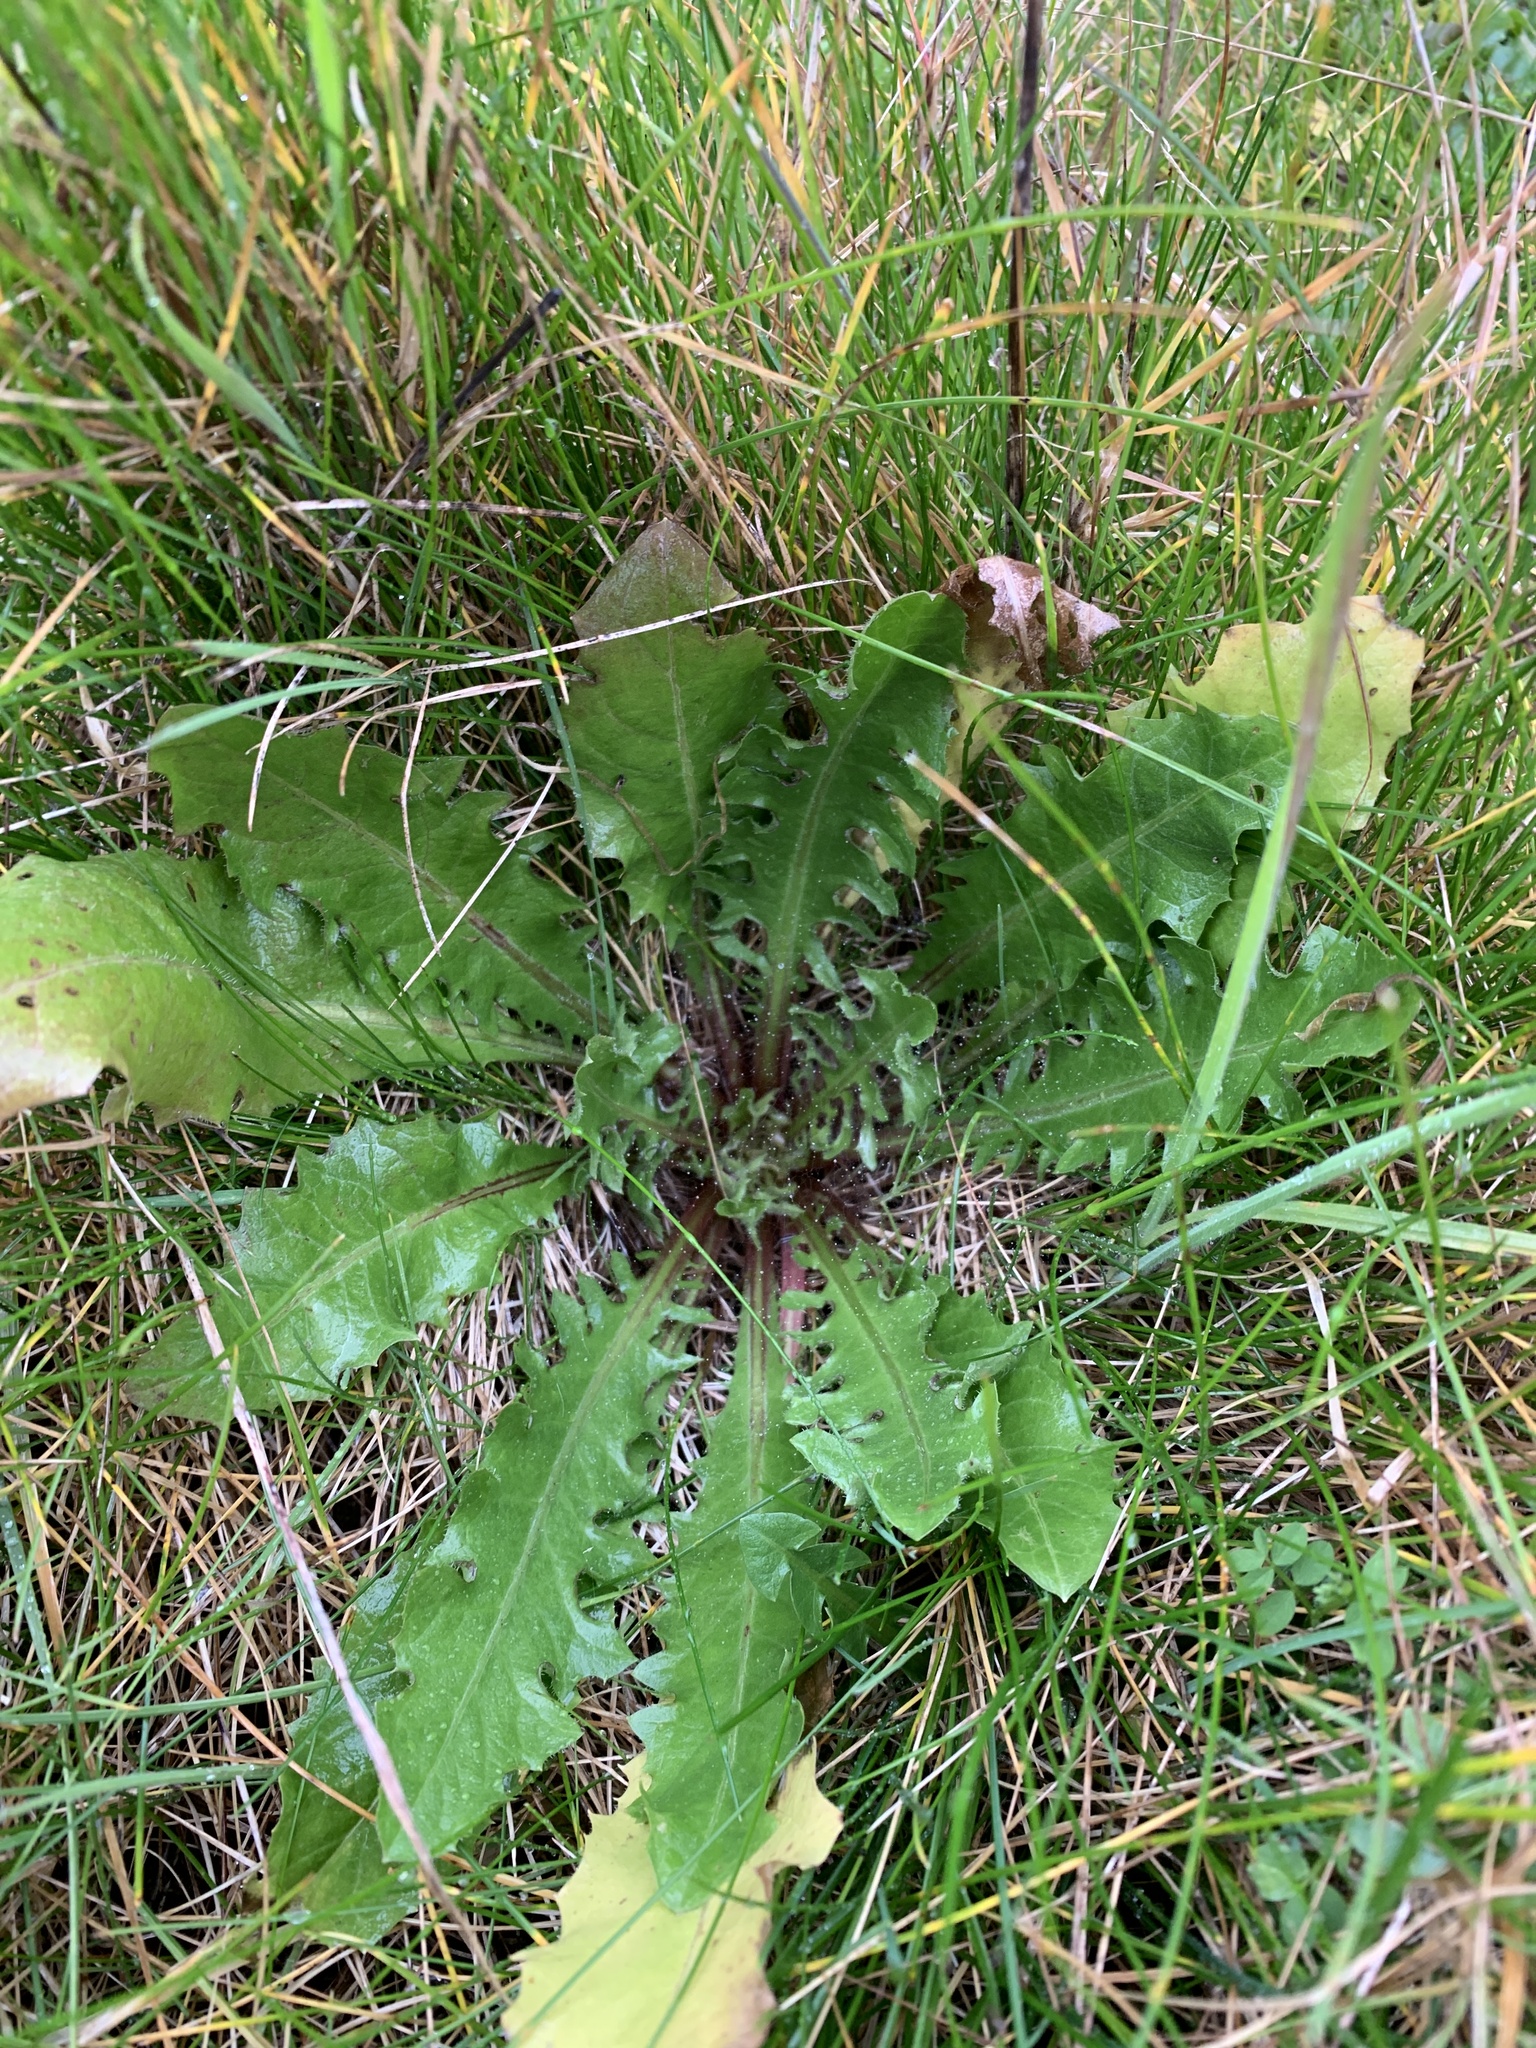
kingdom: Plantae
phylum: Tracheophyta
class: Magnoliopsida
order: Asterales
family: Asteraceae
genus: Taraxacum
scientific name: Taraxacum officinale
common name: Common dandelion
